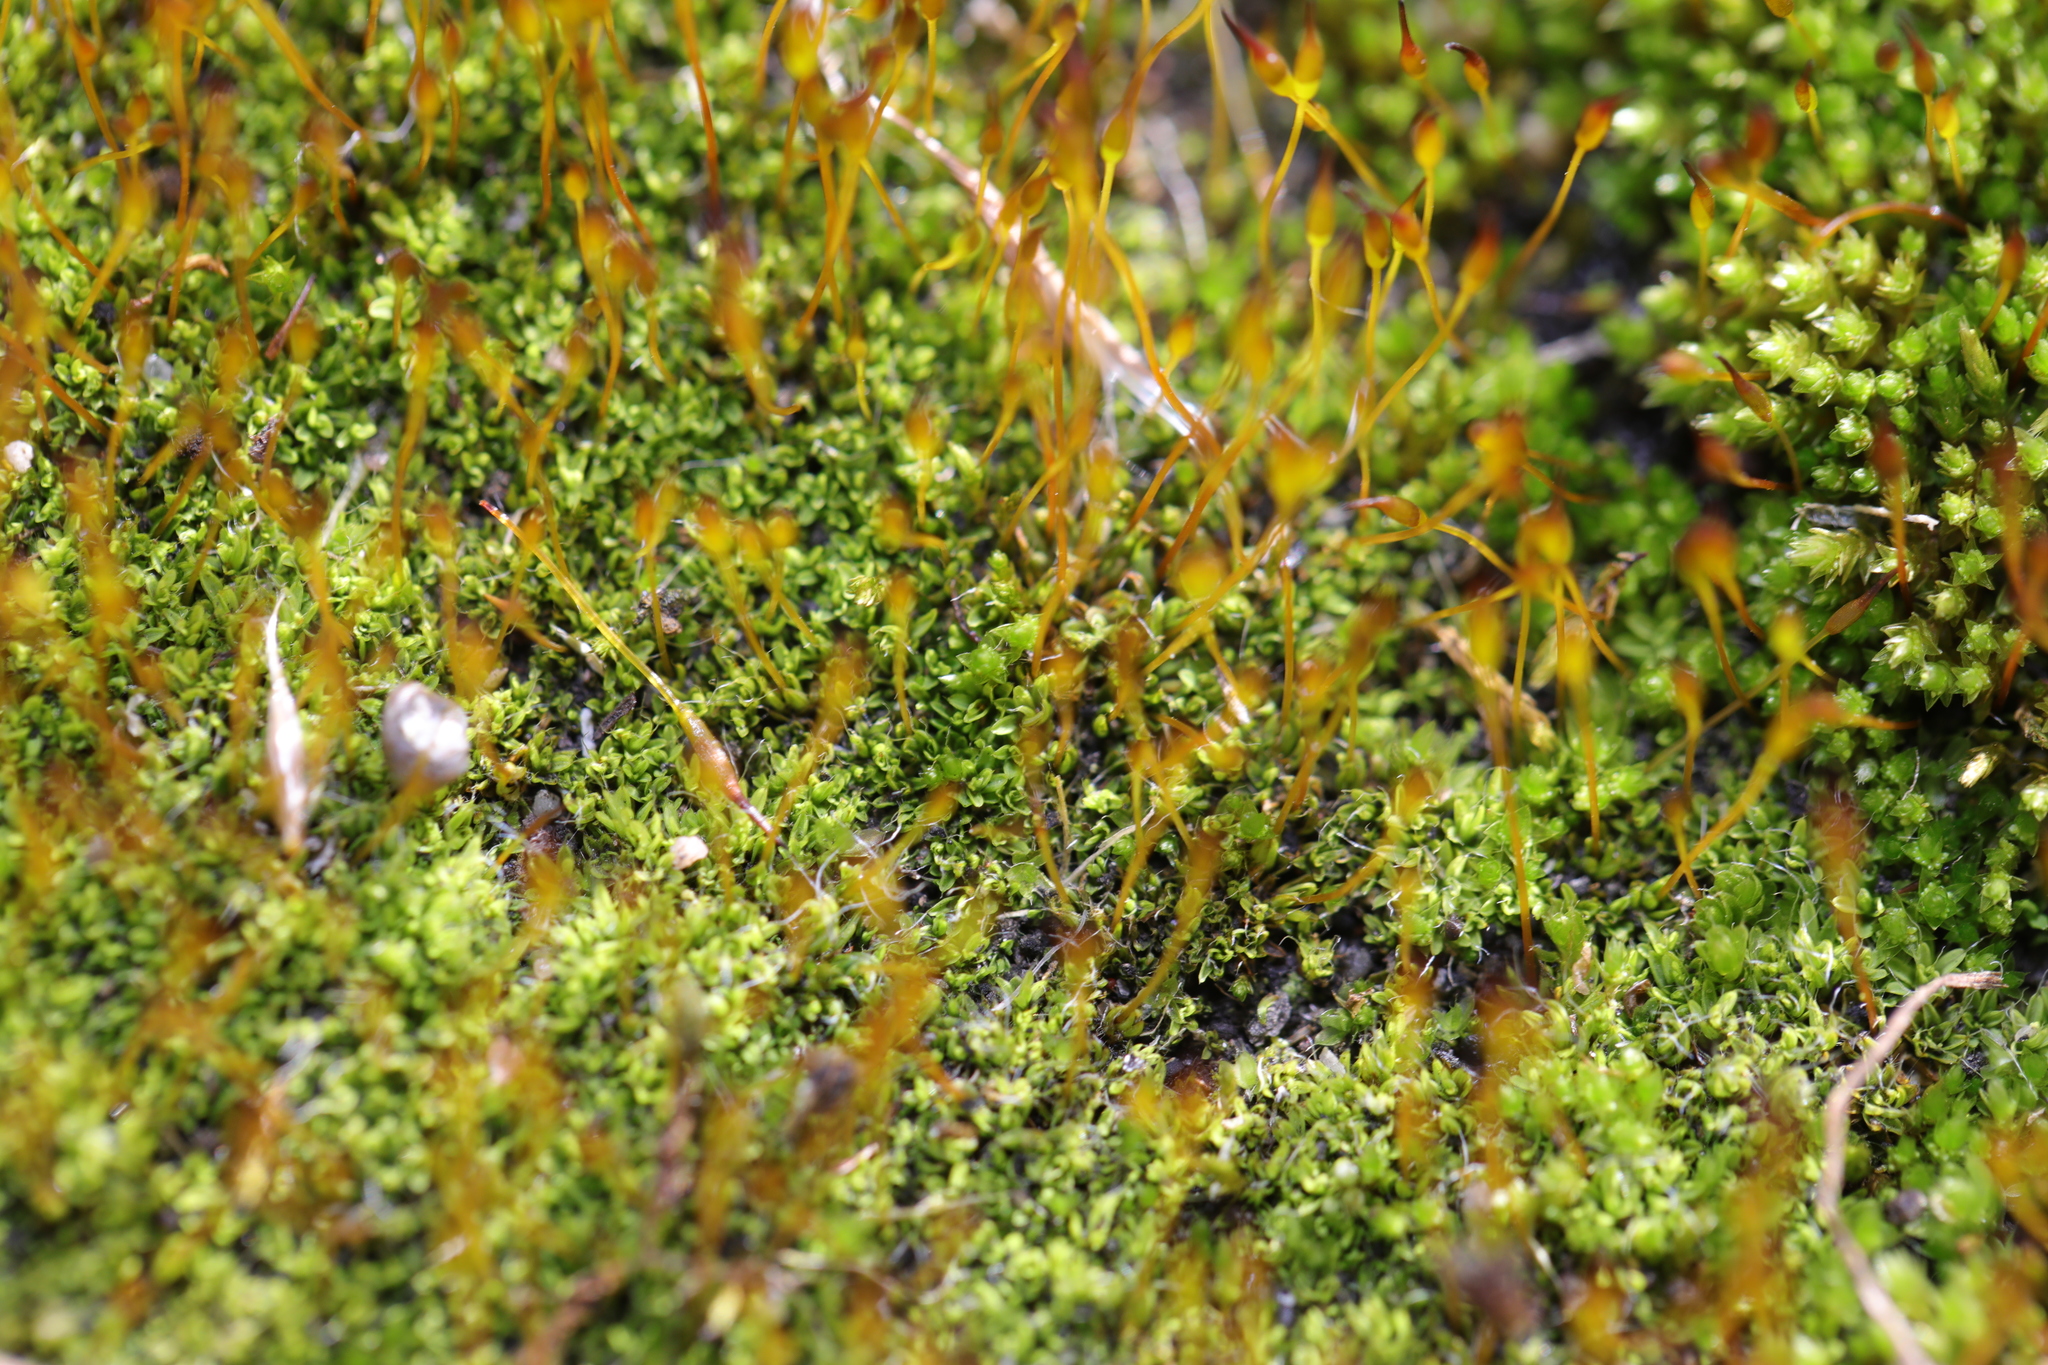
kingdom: Plantae
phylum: Bryophyta
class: Bryopsida
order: Pottiales
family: Pottiaceae
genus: Tortula
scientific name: Tortula muralis
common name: Wall screw-moss
